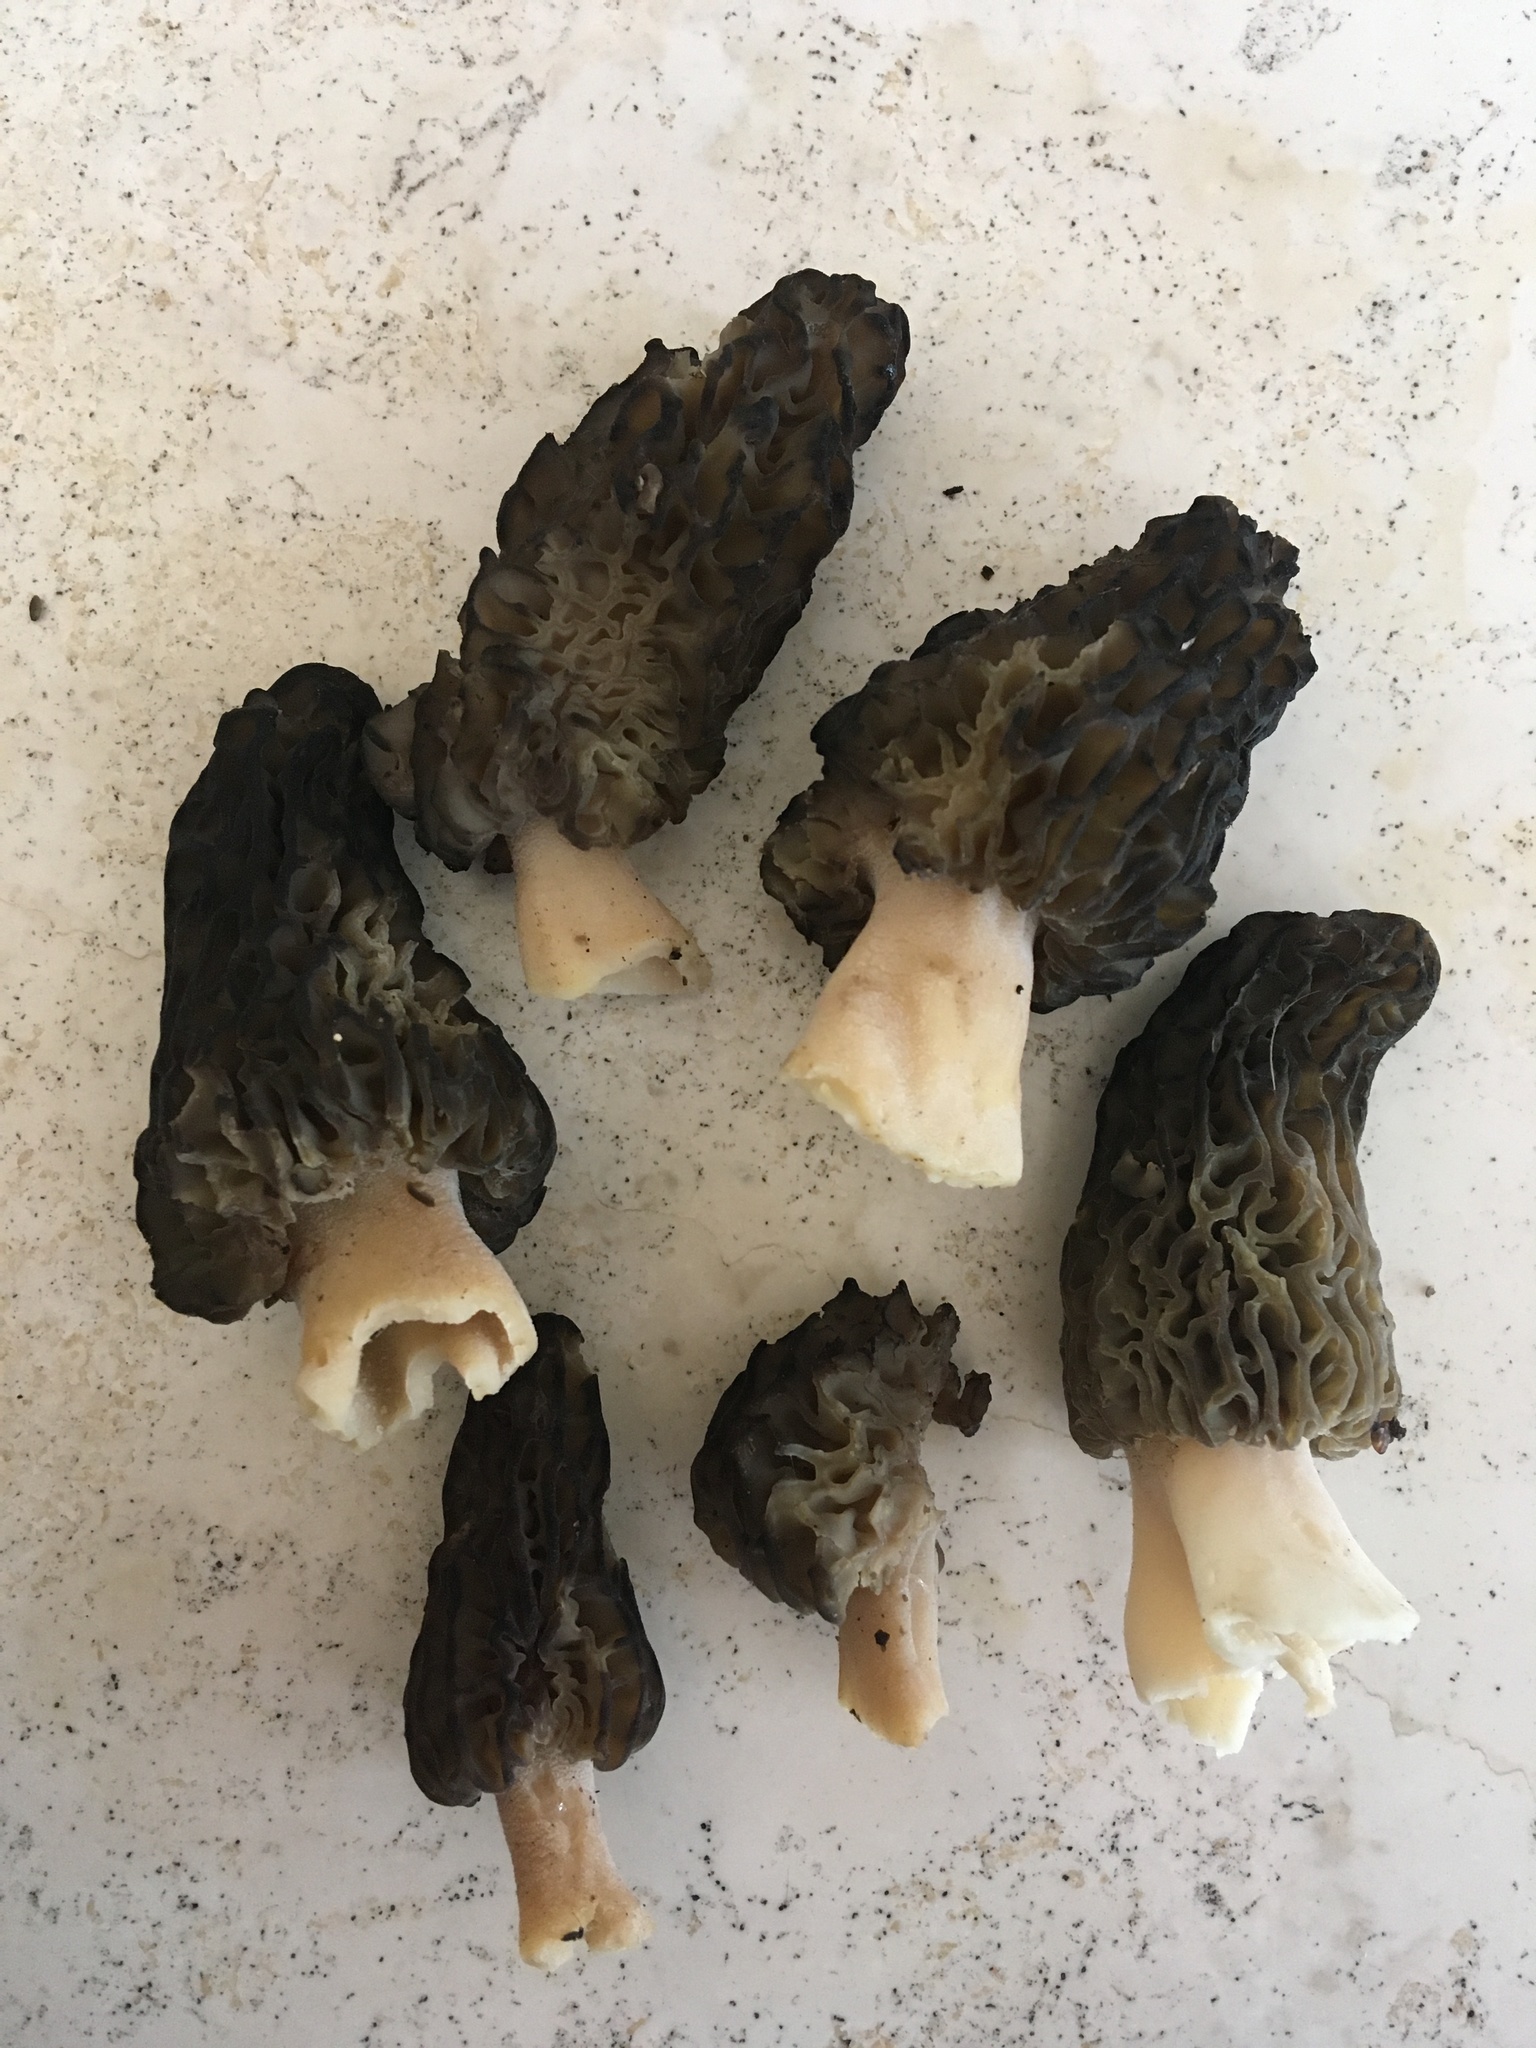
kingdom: Fungi
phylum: Ascomycota
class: Pezizomycetes
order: Pezizales
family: Morchellaceae
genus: Morchella
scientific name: Morchella angusticeps
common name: Black morel
